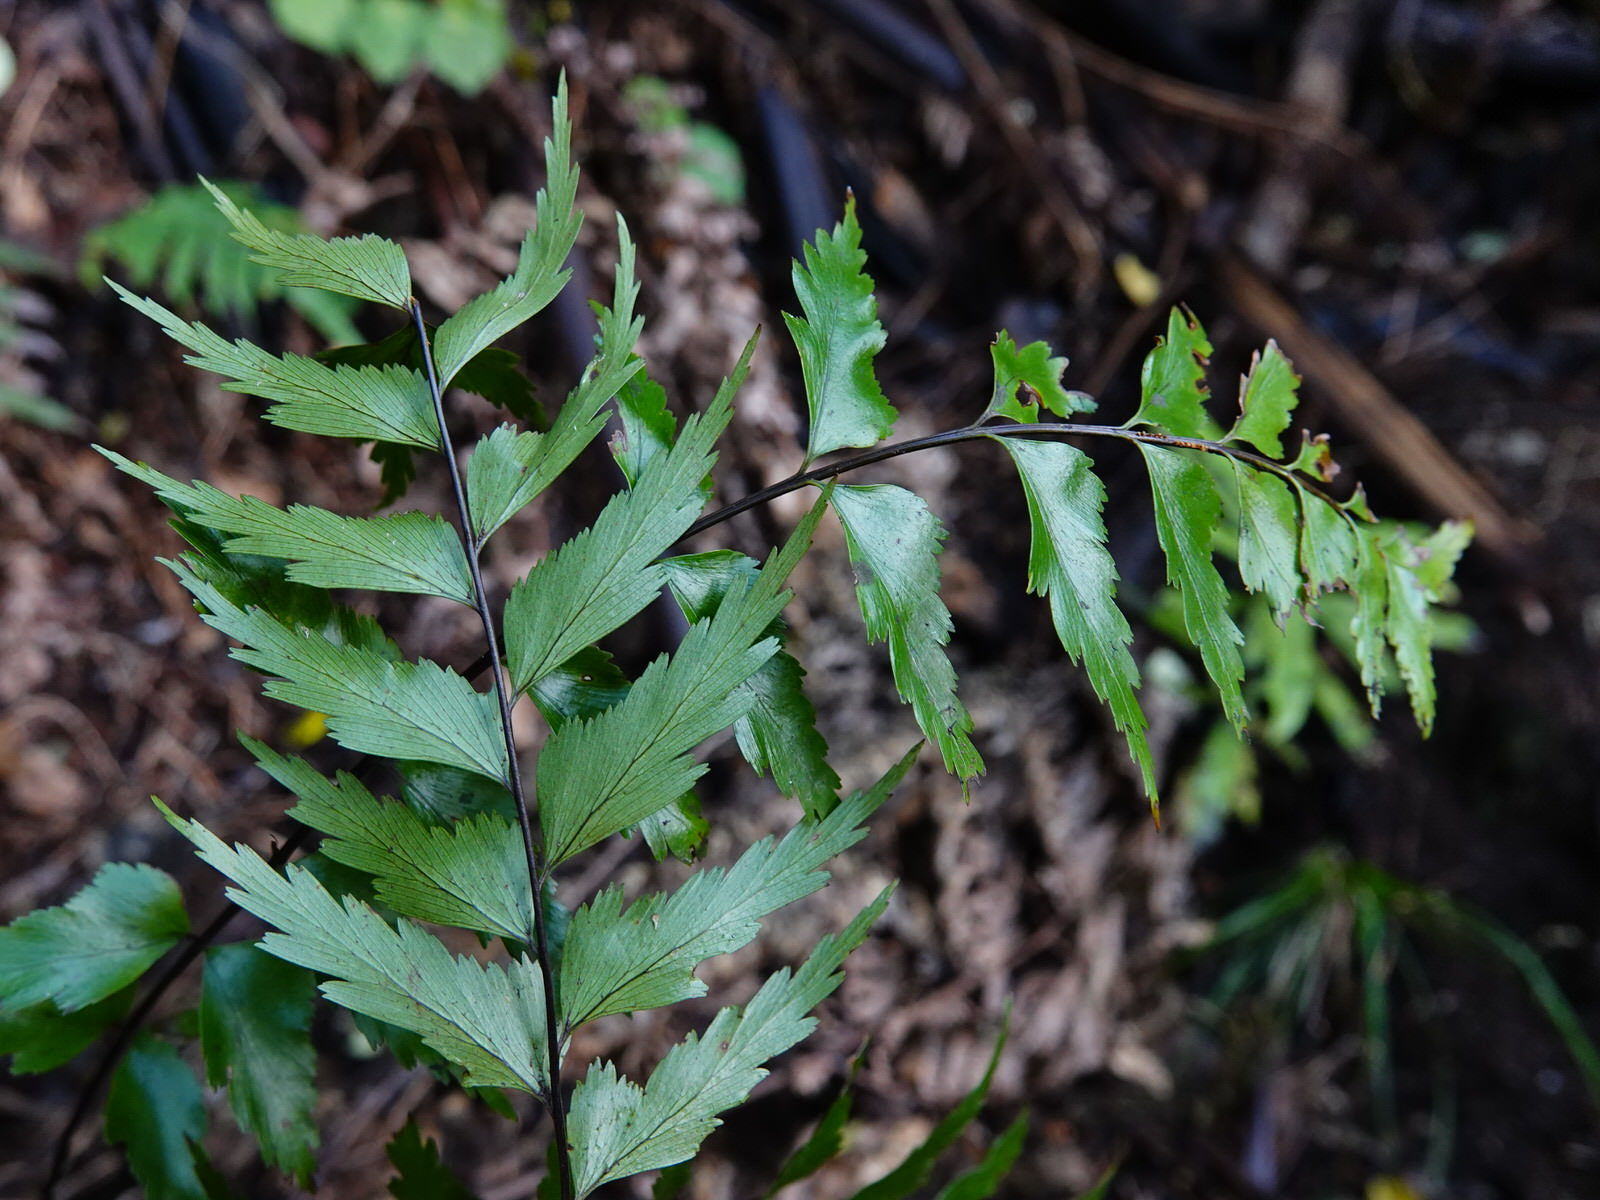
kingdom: Plantae
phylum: Tracheophyta
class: Polypodiopsida
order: Polypodiales
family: Aspleniaceae
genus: Asplenium
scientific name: Asplenium polyodon
